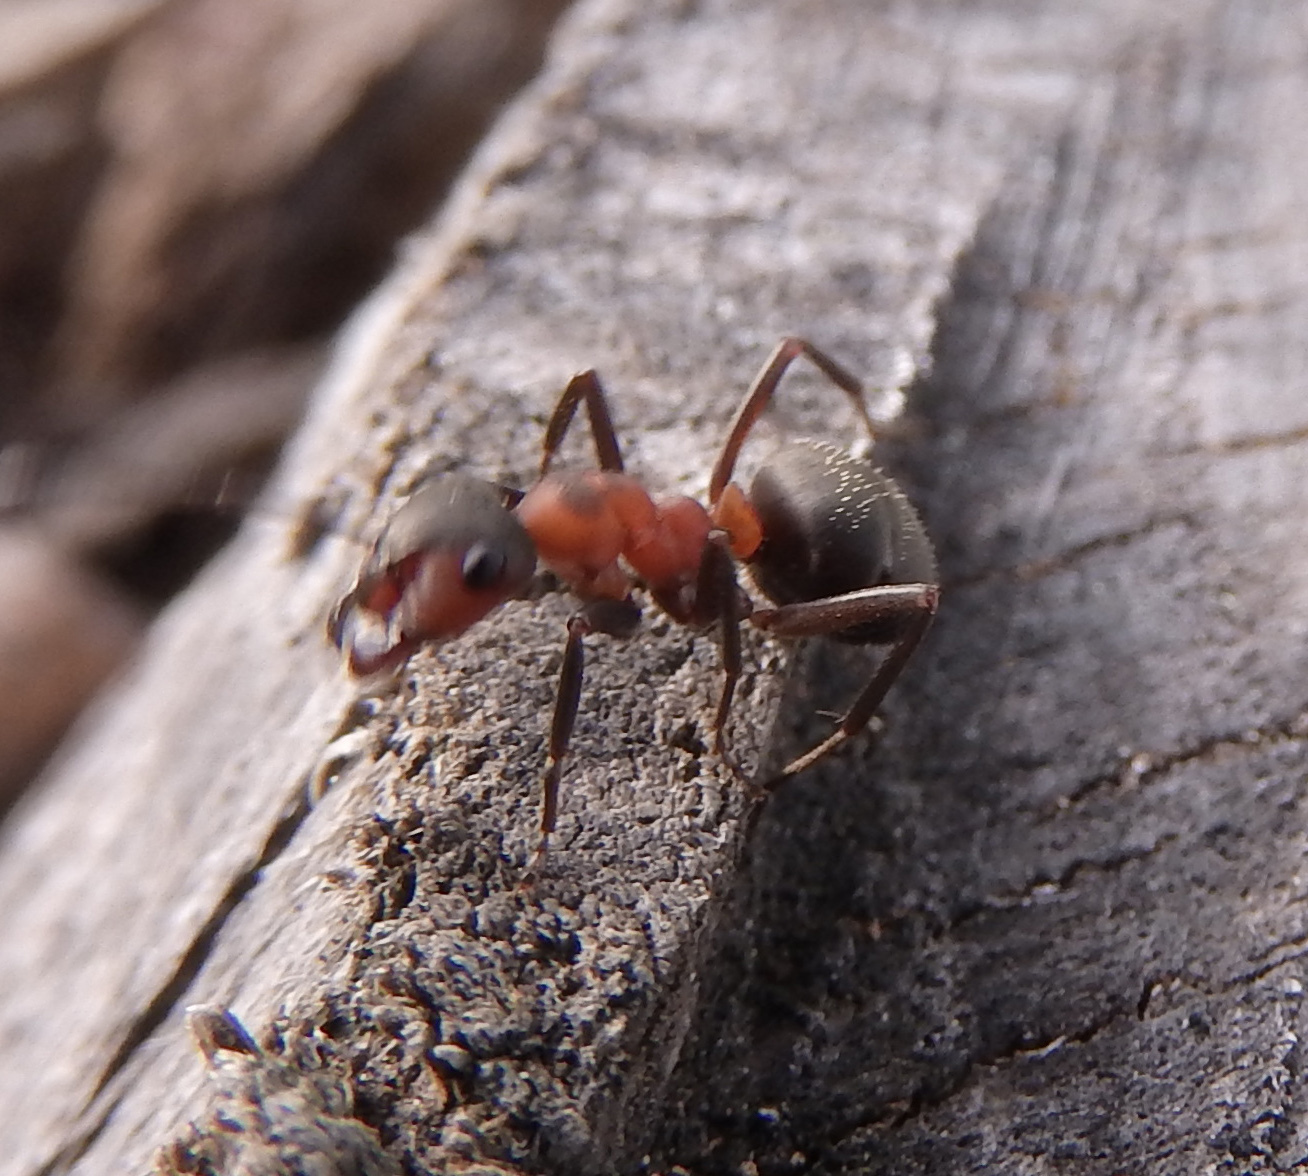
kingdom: Animalia
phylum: Arthropoda
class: Insecta
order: Hymenoptera
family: Formicidae
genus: Formica
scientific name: Formica rufa
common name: Red wood ant
